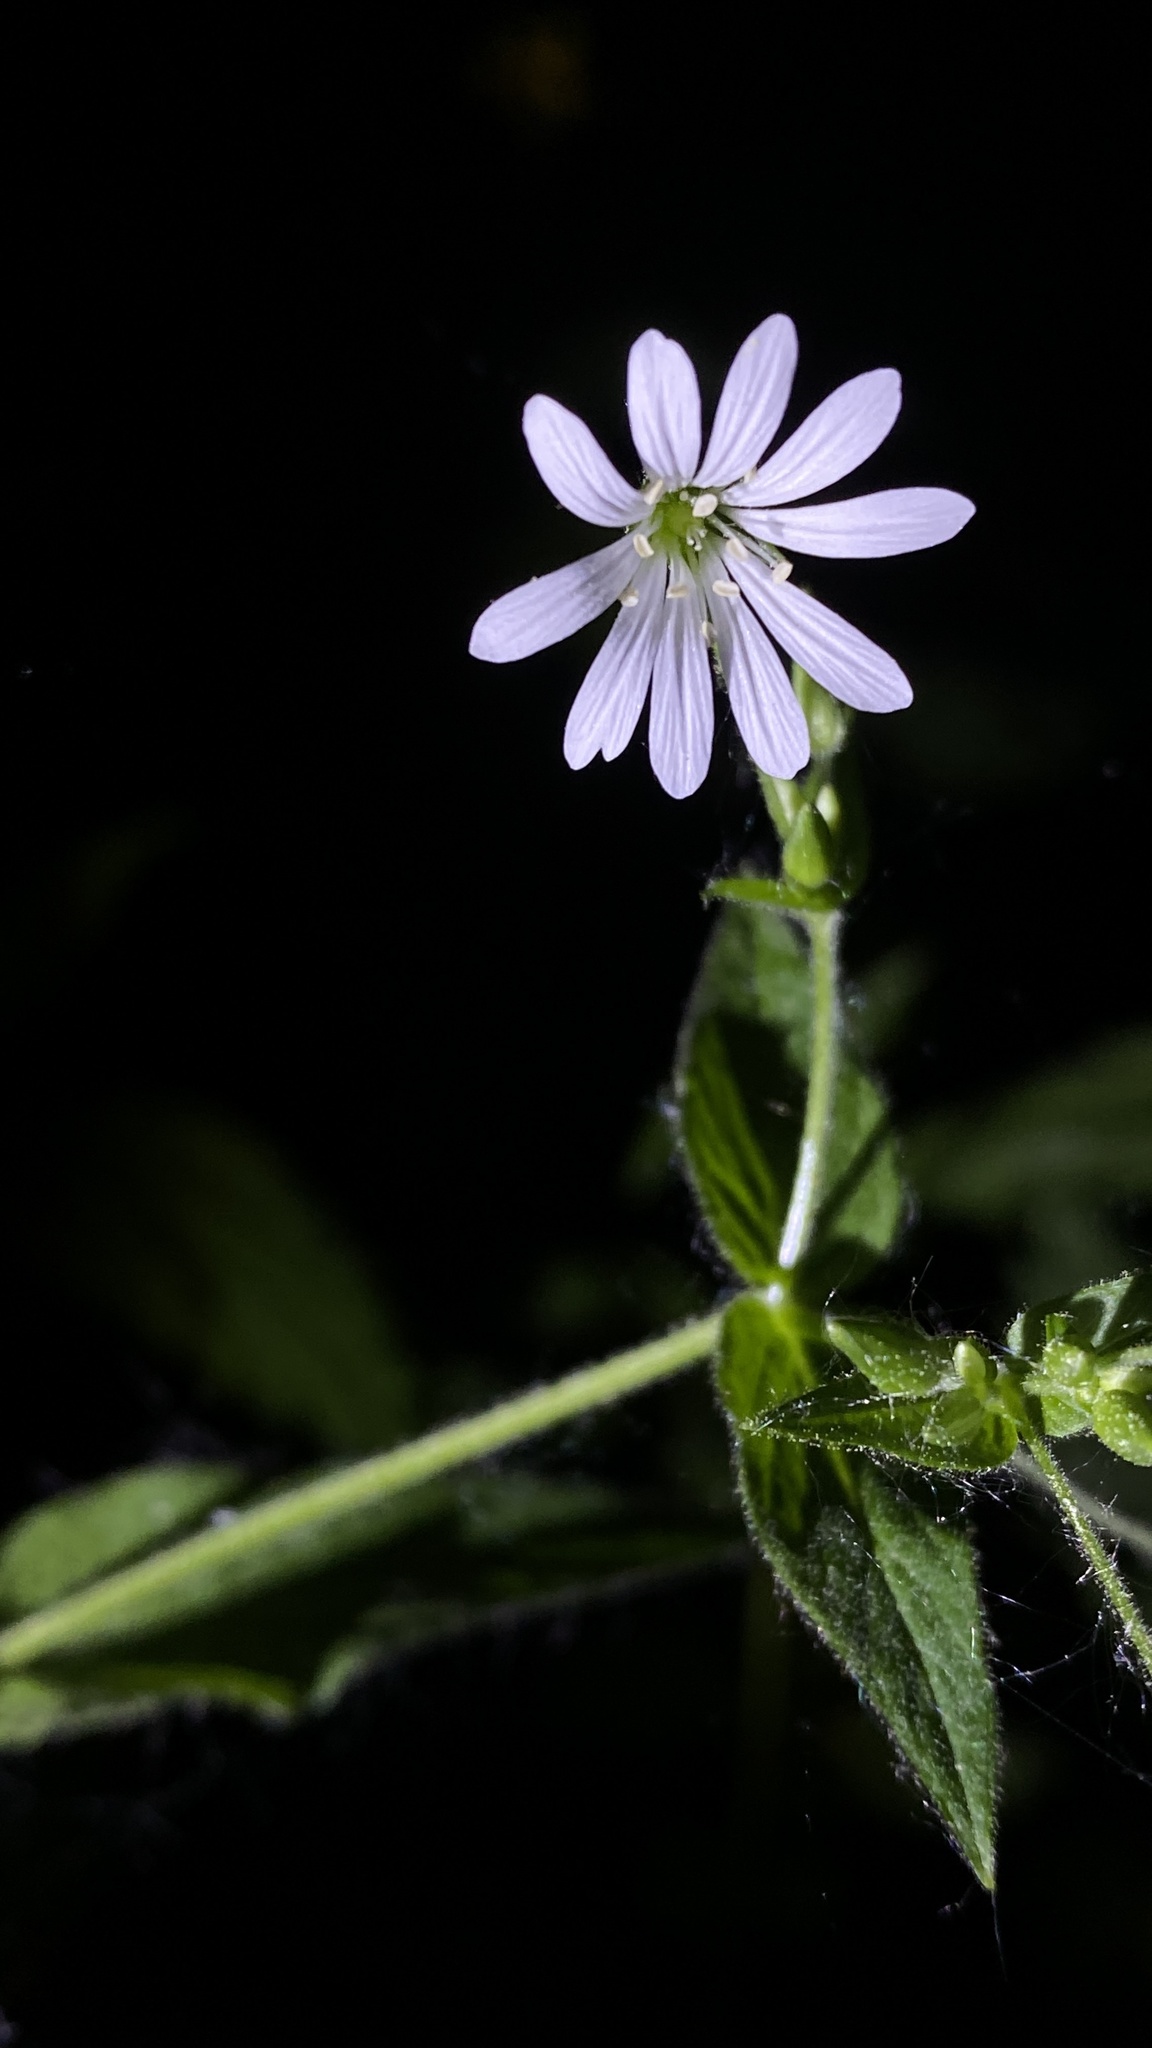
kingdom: Plantae
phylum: Tracheophyta
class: Magnoliopsida
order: Caryophyllales
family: Caryophyllaceae
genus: Stellaria
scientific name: Stellaria nemorum
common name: Wood stitchwort
